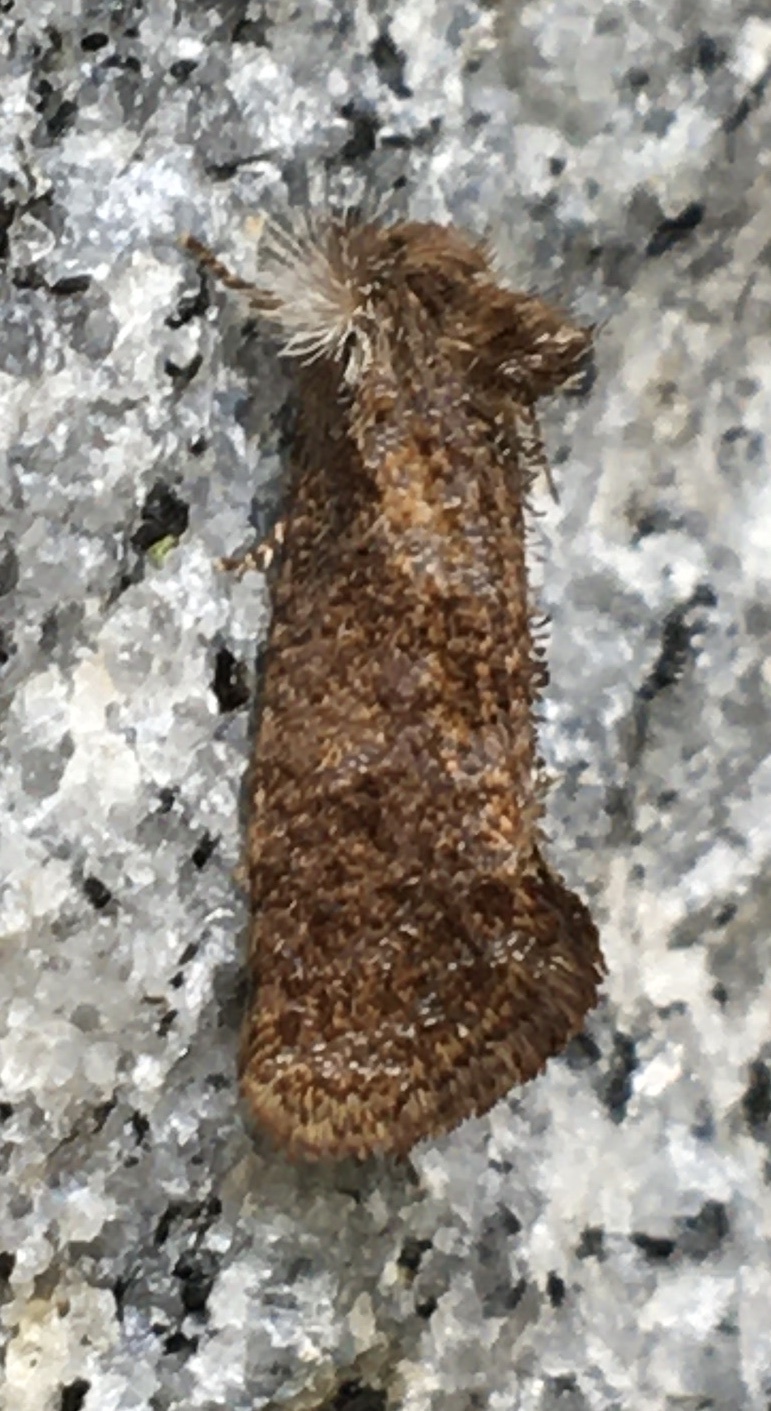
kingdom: Animalia
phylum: Arthropoda
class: Insecta
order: Lepidoptera
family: Tineidae
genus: Acrolophus
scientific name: Acrolophus panamae
